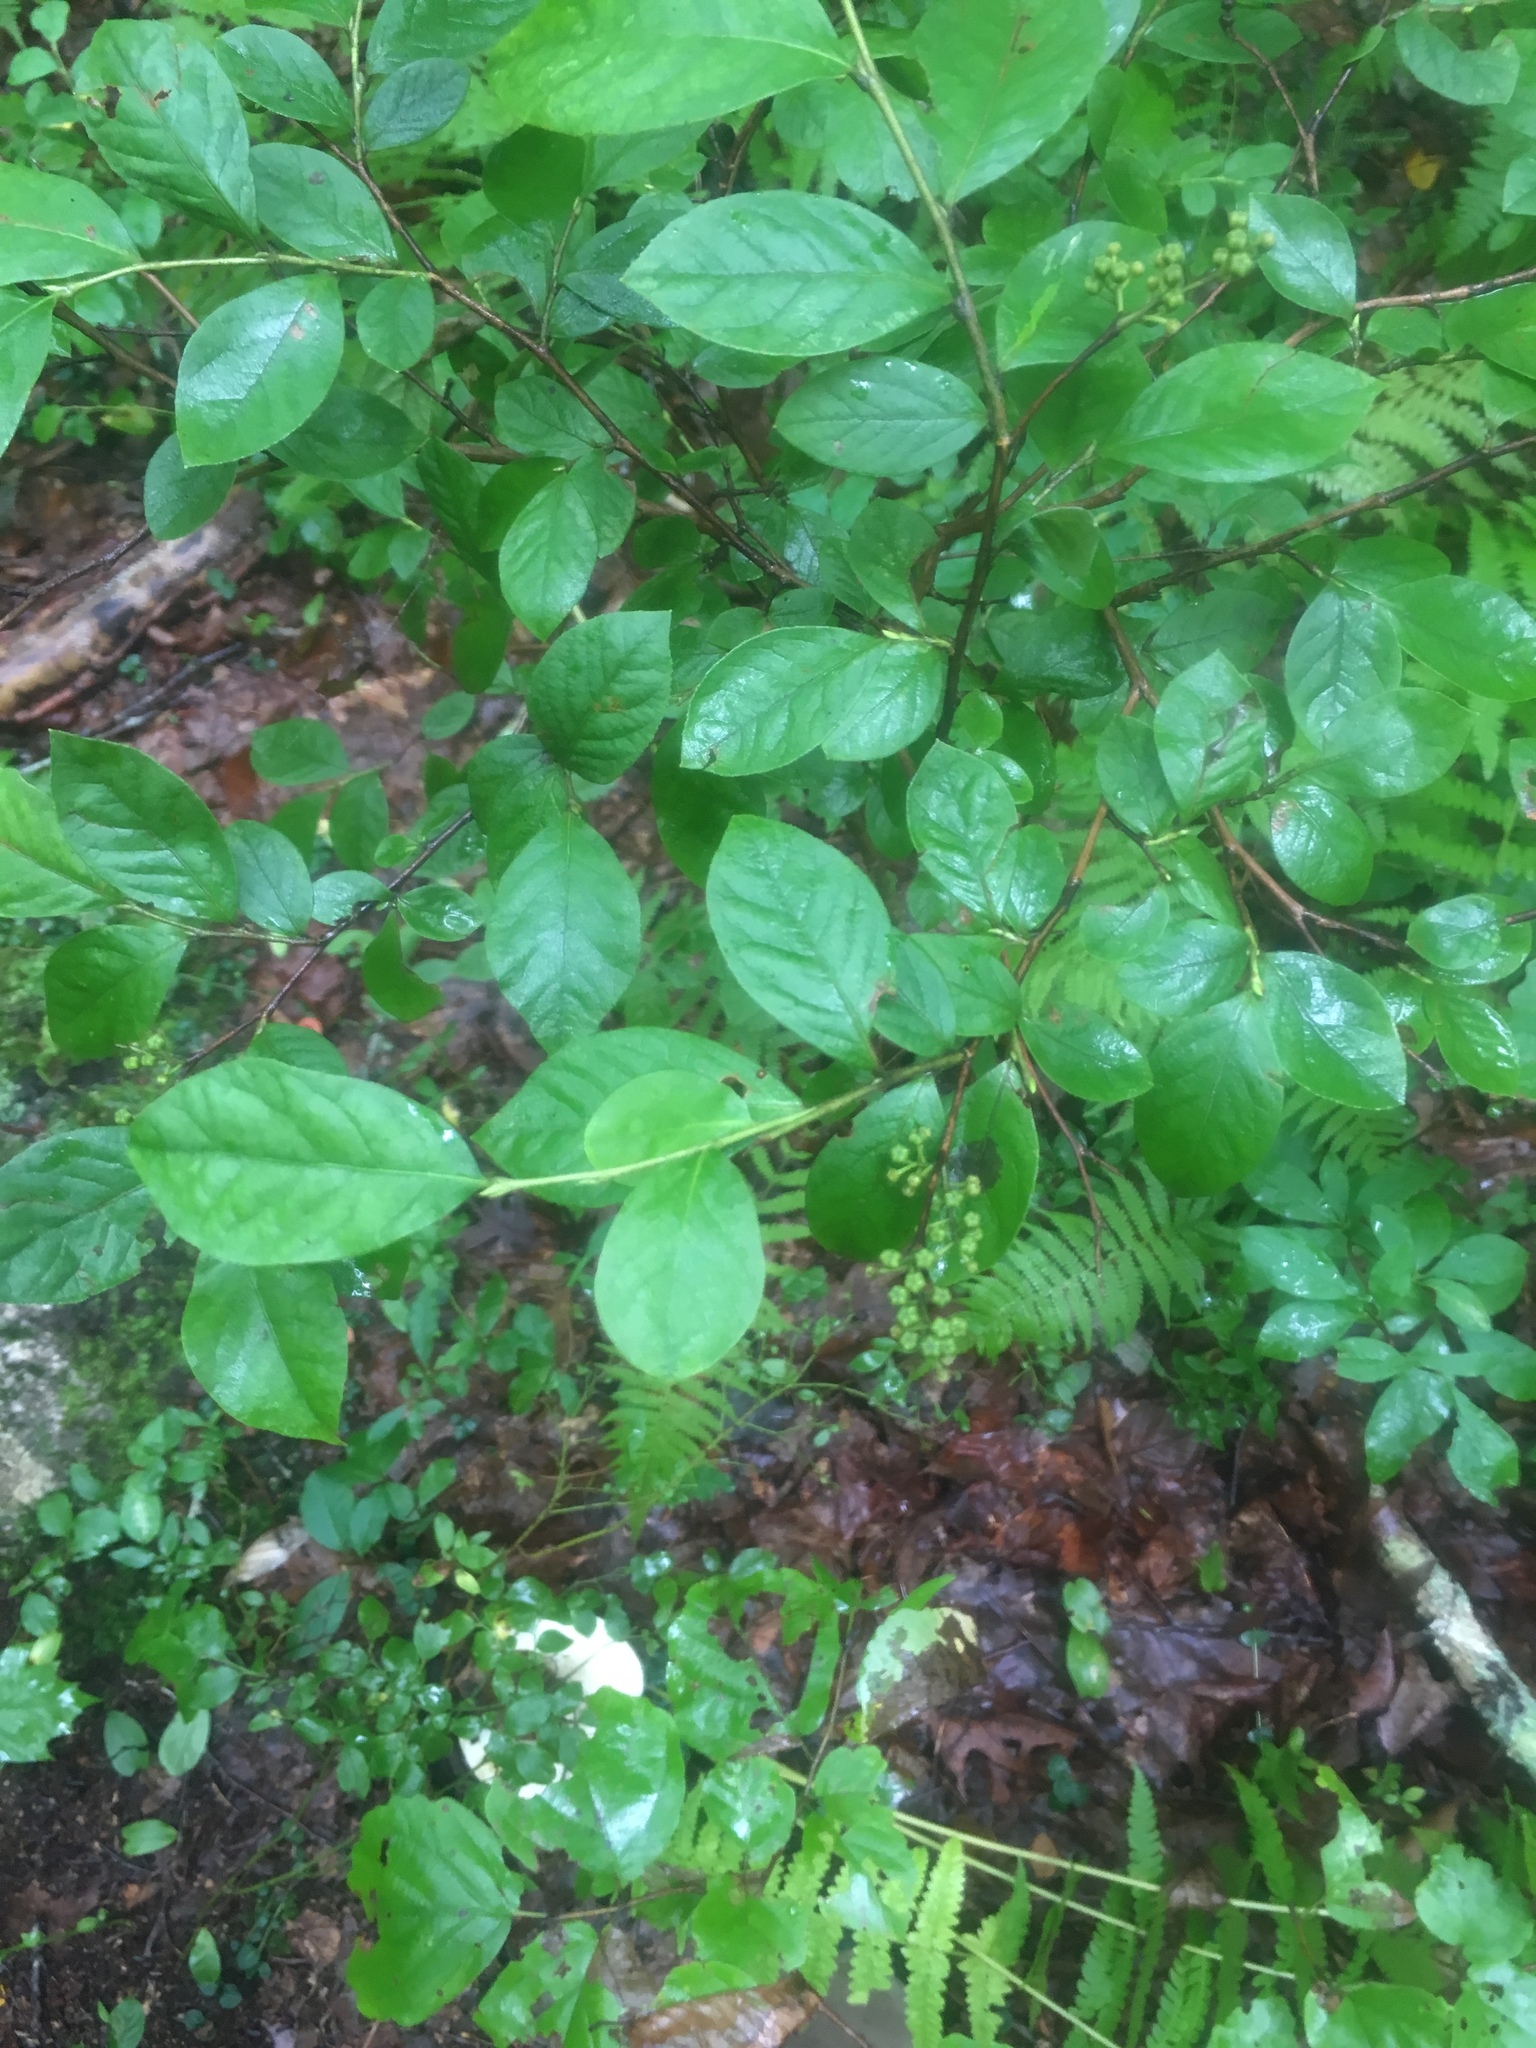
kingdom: Plantae
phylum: Tracheophyta
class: Magnoliopsida
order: Ericales
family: Ericaceae
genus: Lyonia
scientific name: Lyonia ligustrina
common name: Maleberry
